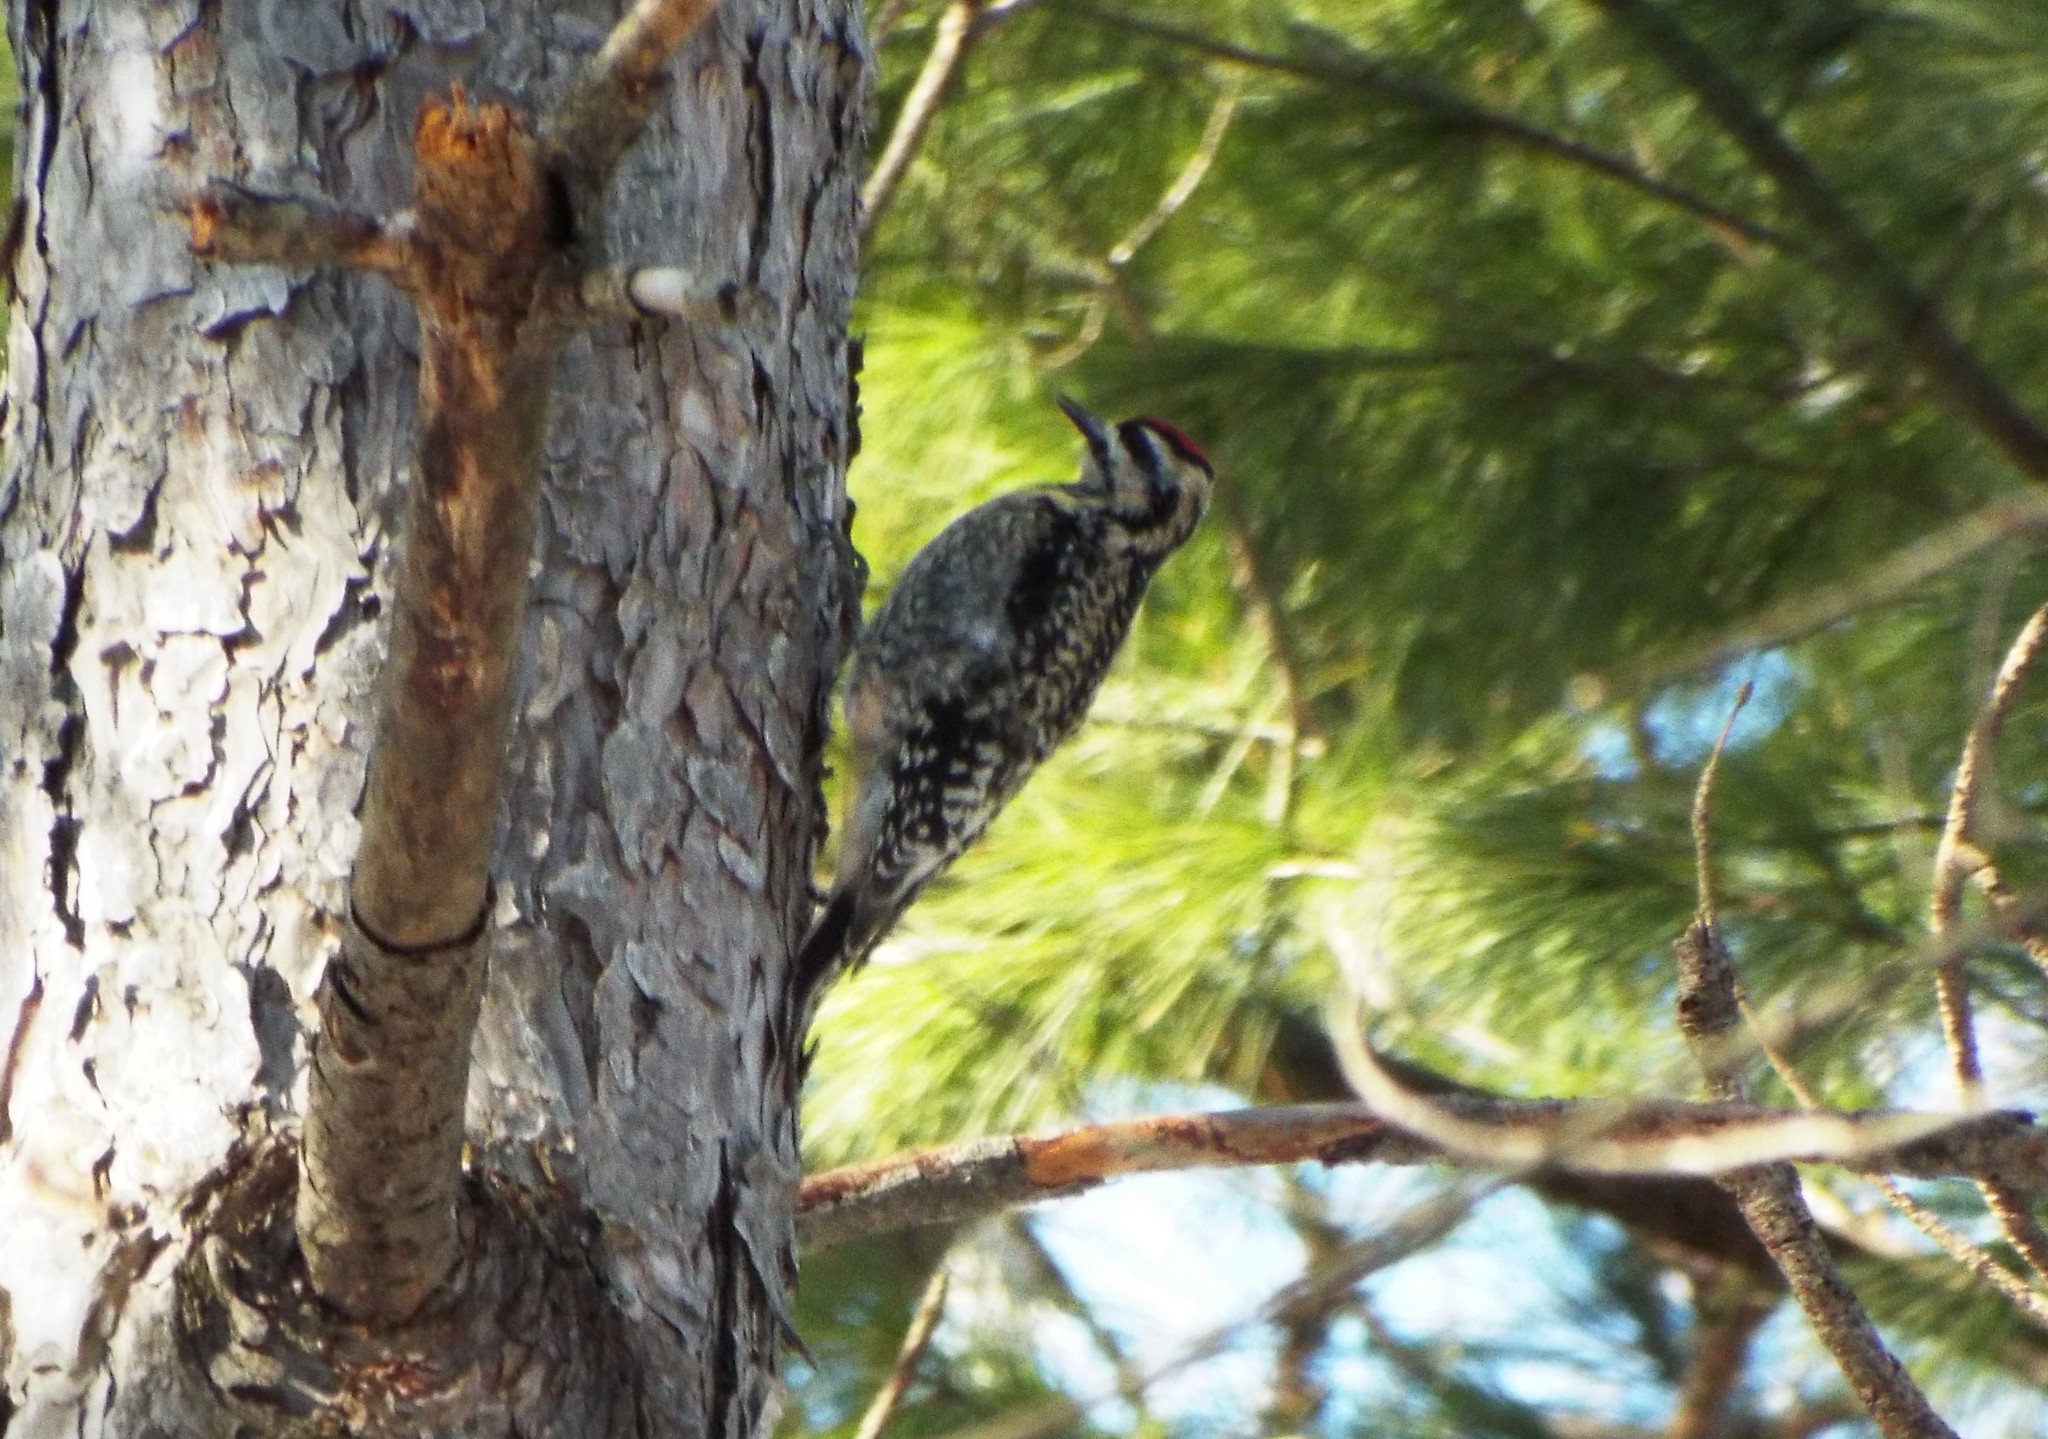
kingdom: Animalia
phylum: Chordata
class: Aves
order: Piciformes
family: Picidae
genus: Sphyrapicus
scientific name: Sphyrapicus varius
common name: Yellow-bellied sapsucker
